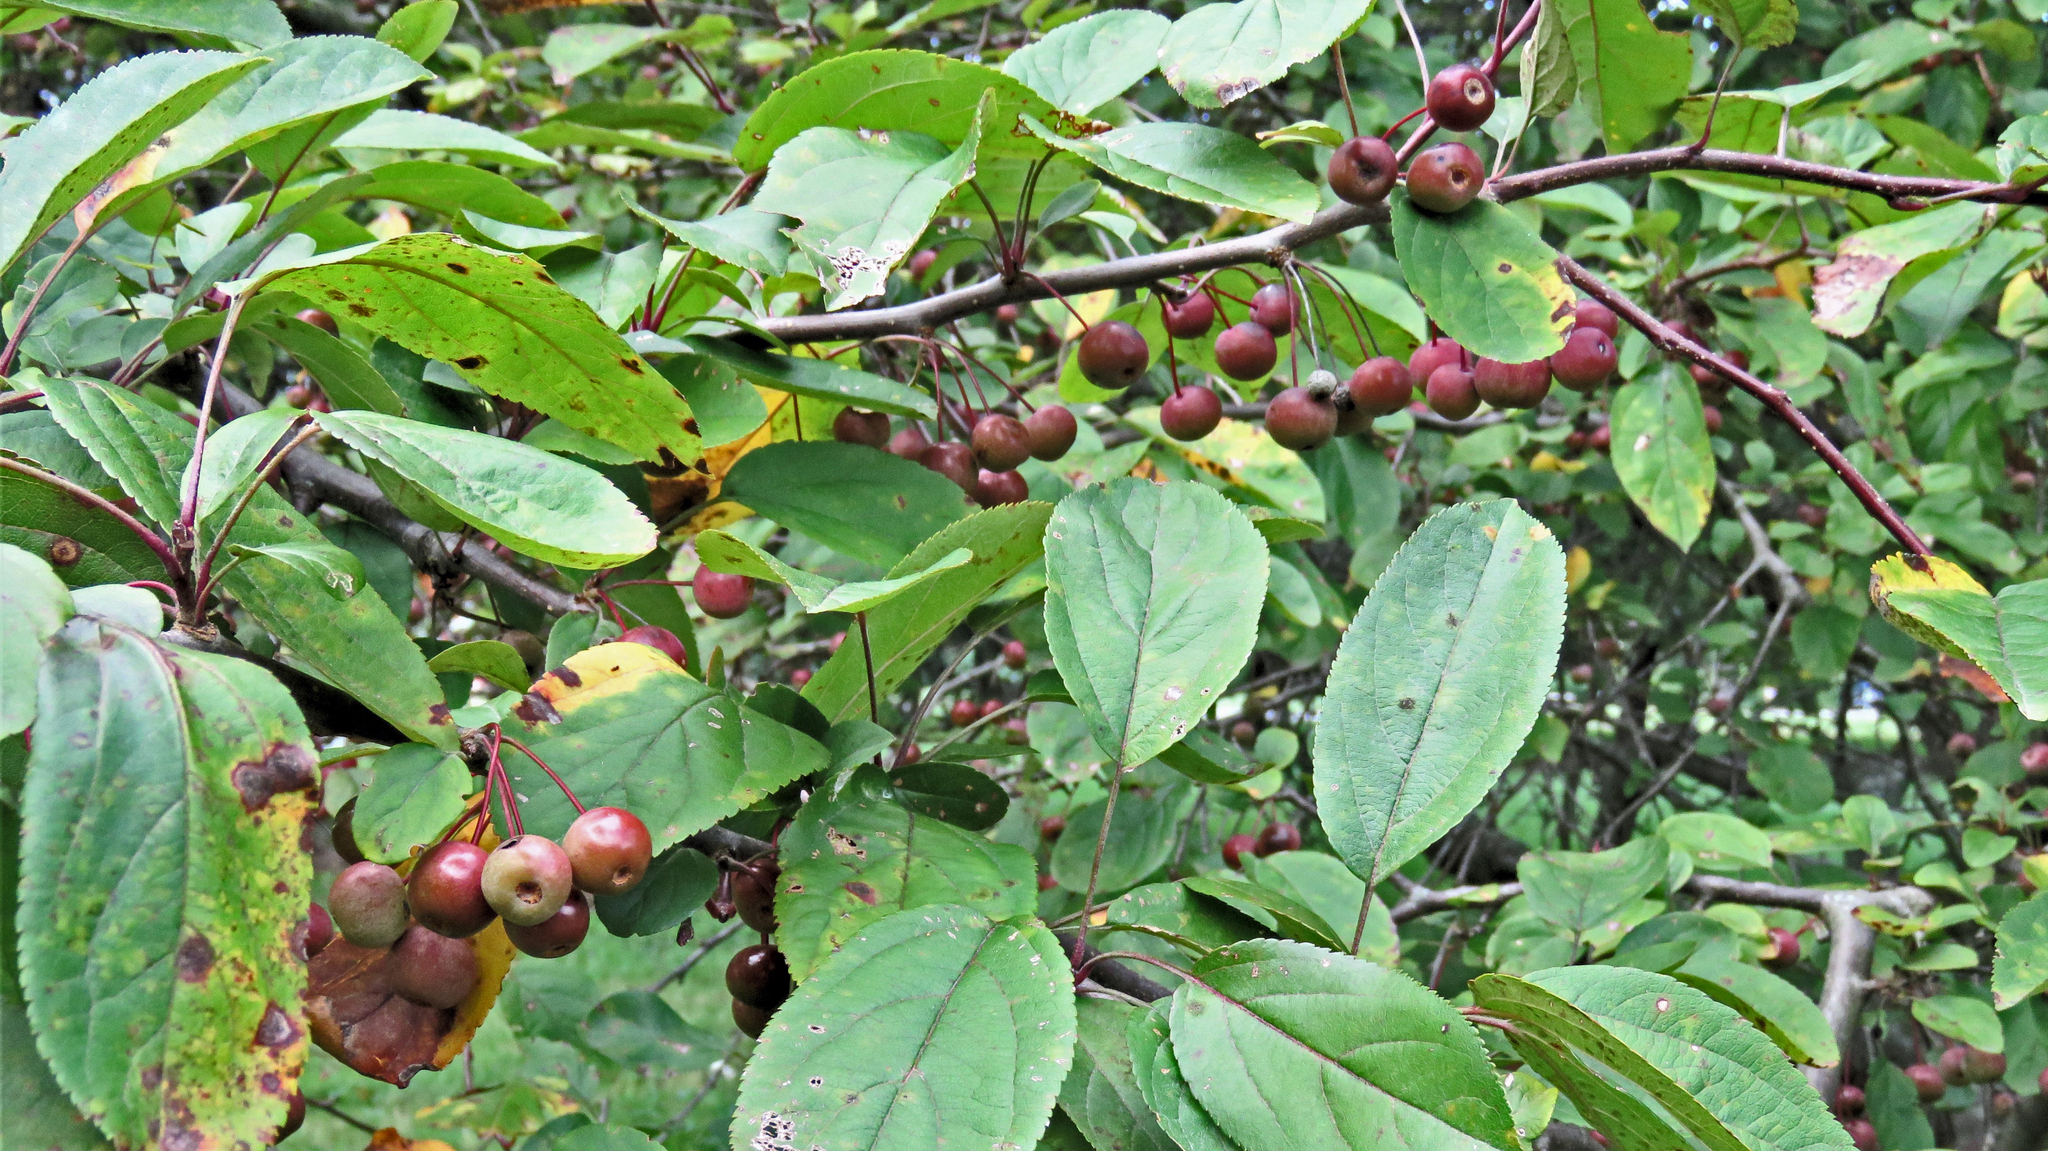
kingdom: Plantae
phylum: Tracheophyta
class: Magnoliopsida
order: Rosales
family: Rosaceae
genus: Prunus
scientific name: Prunus virginiana
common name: Chokecherry
